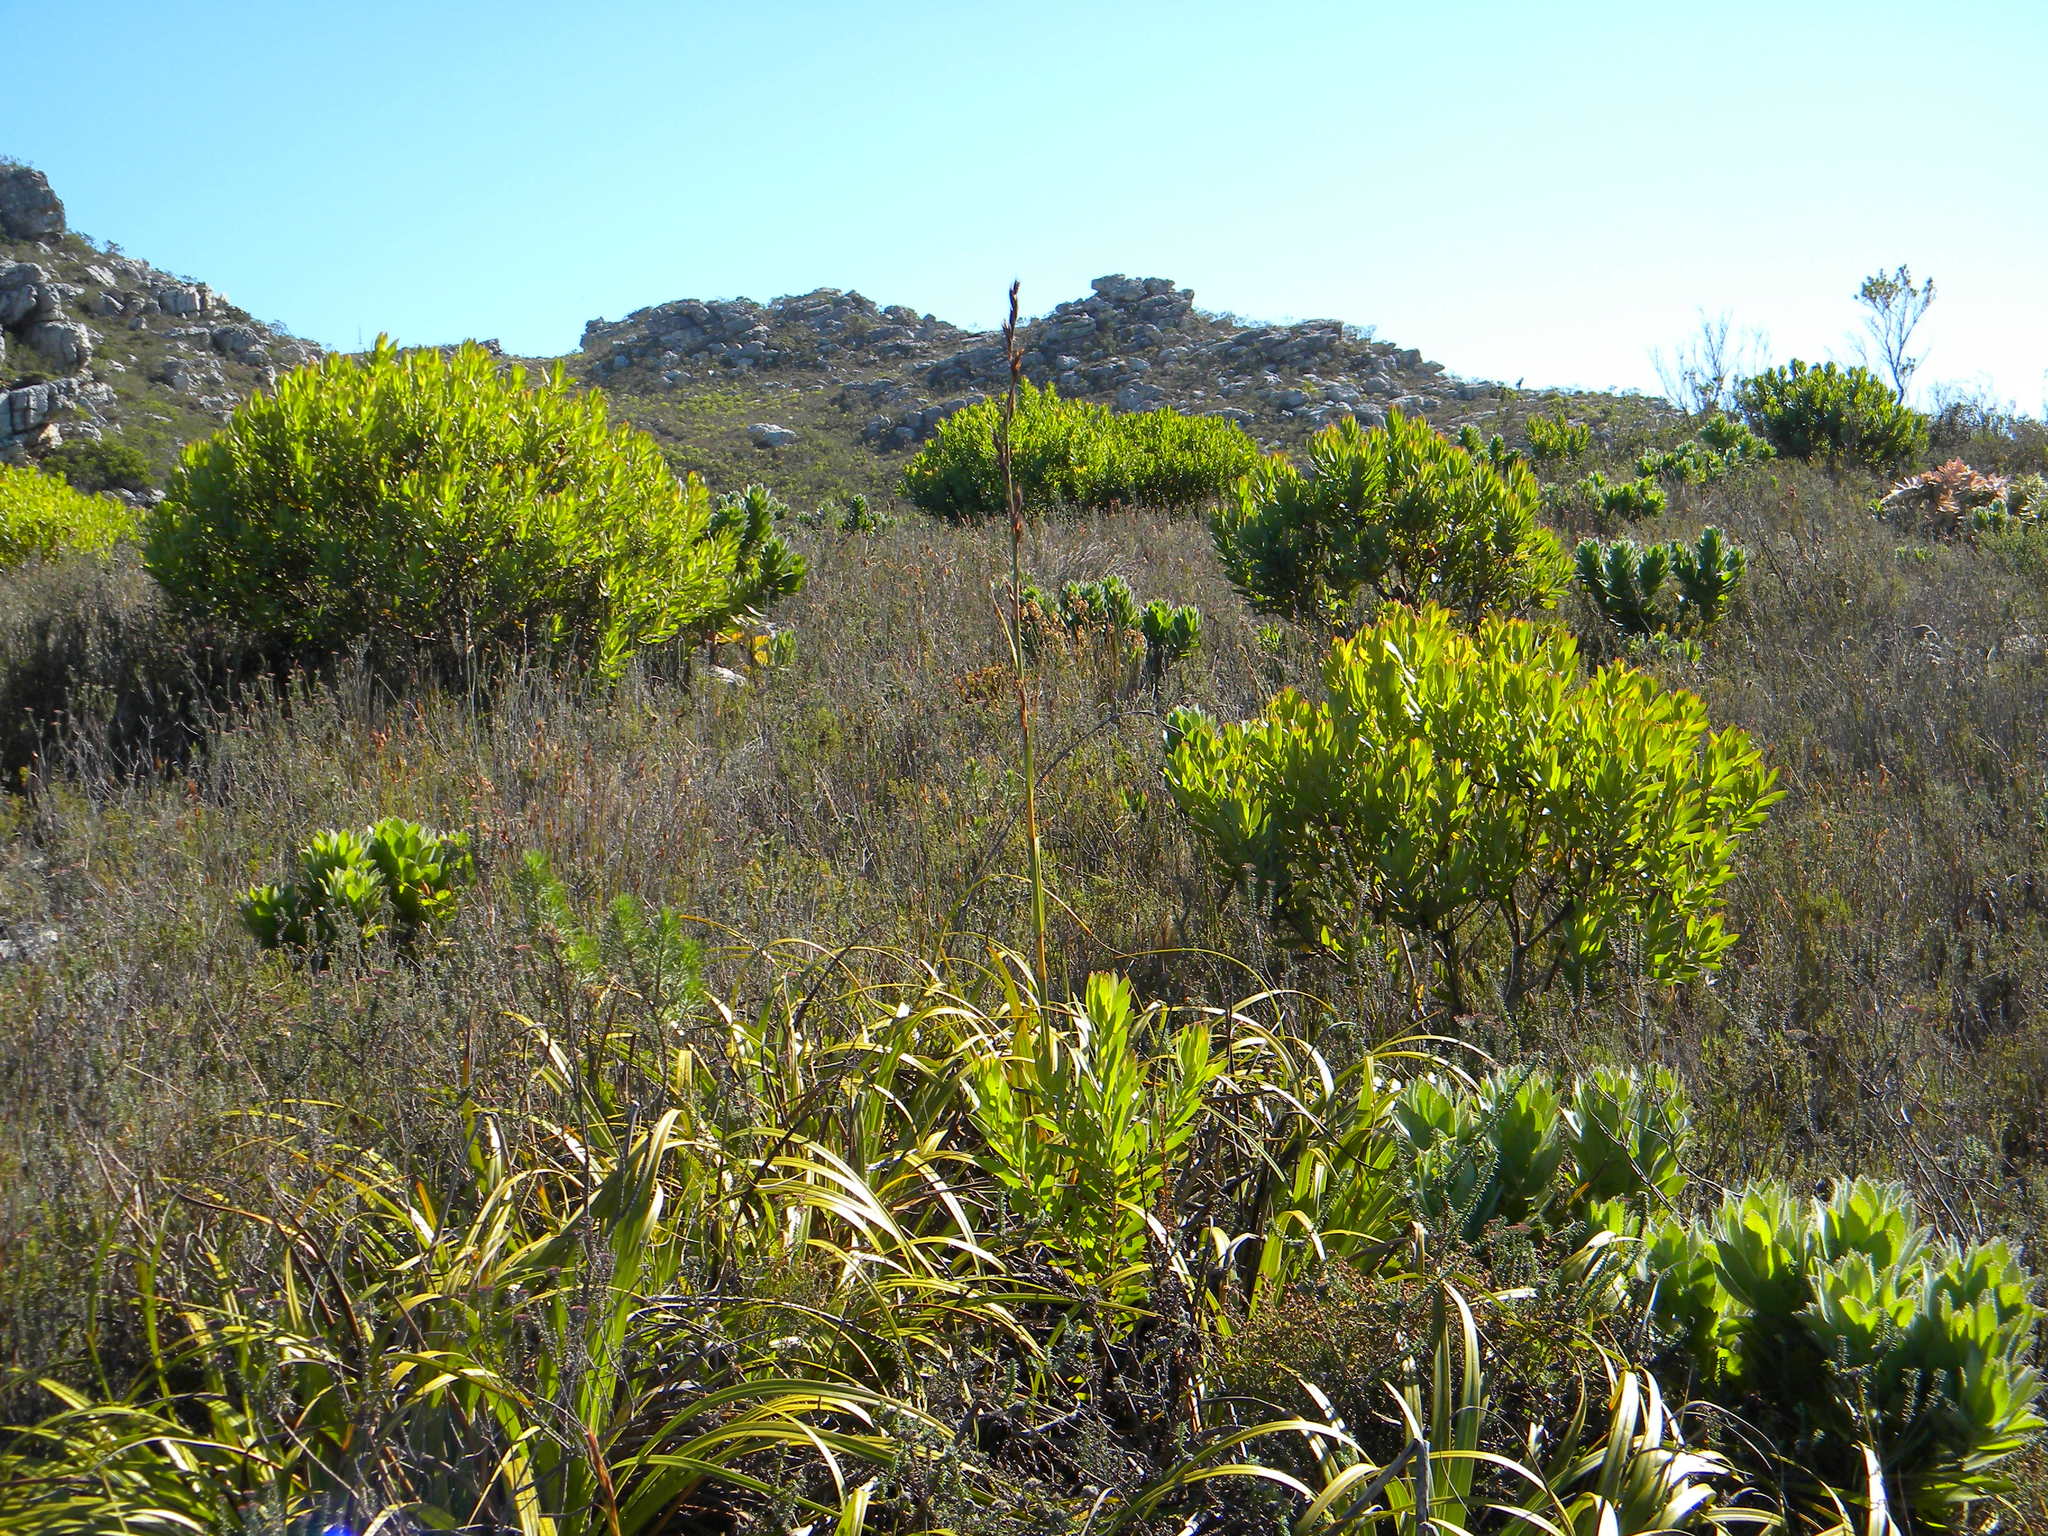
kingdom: Plantae
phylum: Tracheophyta
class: Liliopsida
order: Poales
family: Cyperaceae
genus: Tetraria
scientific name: Tetraria thermalis
